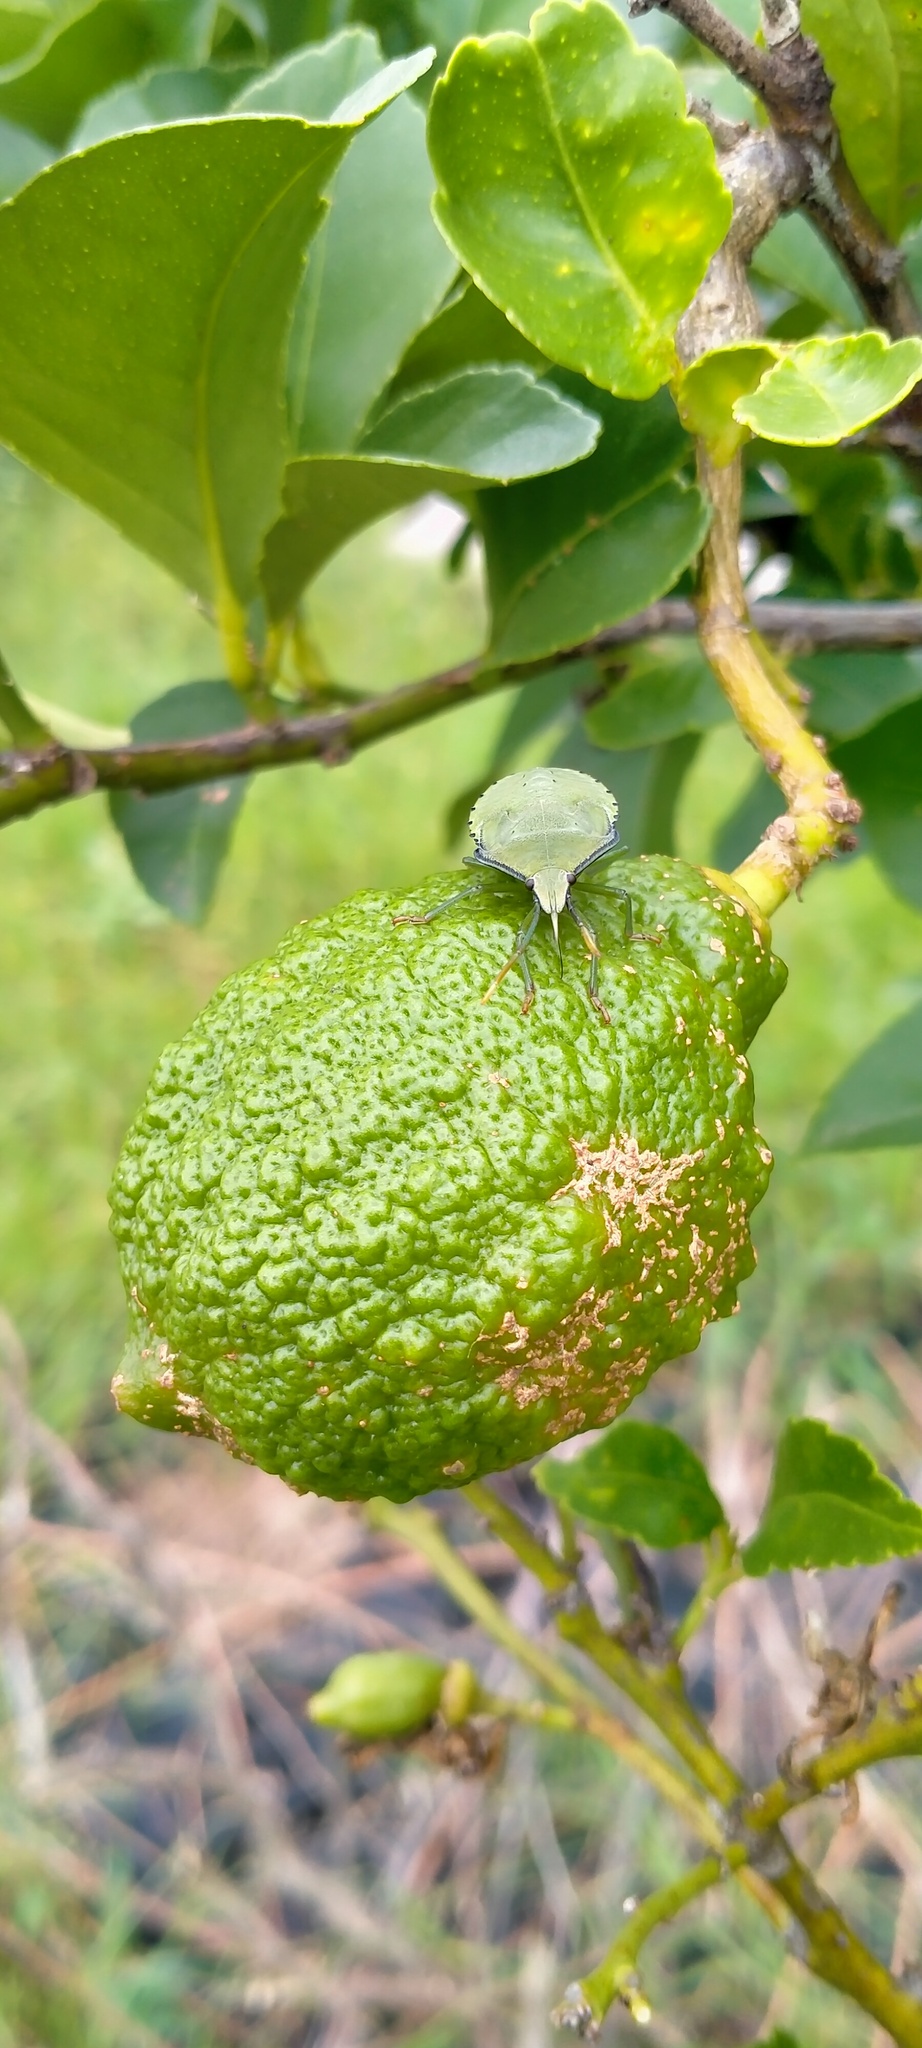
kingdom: Animalia
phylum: Arthropoda
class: Insecta
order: Hemiptera
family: Pentatomidae
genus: Biprorulus
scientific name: Biprorulus
